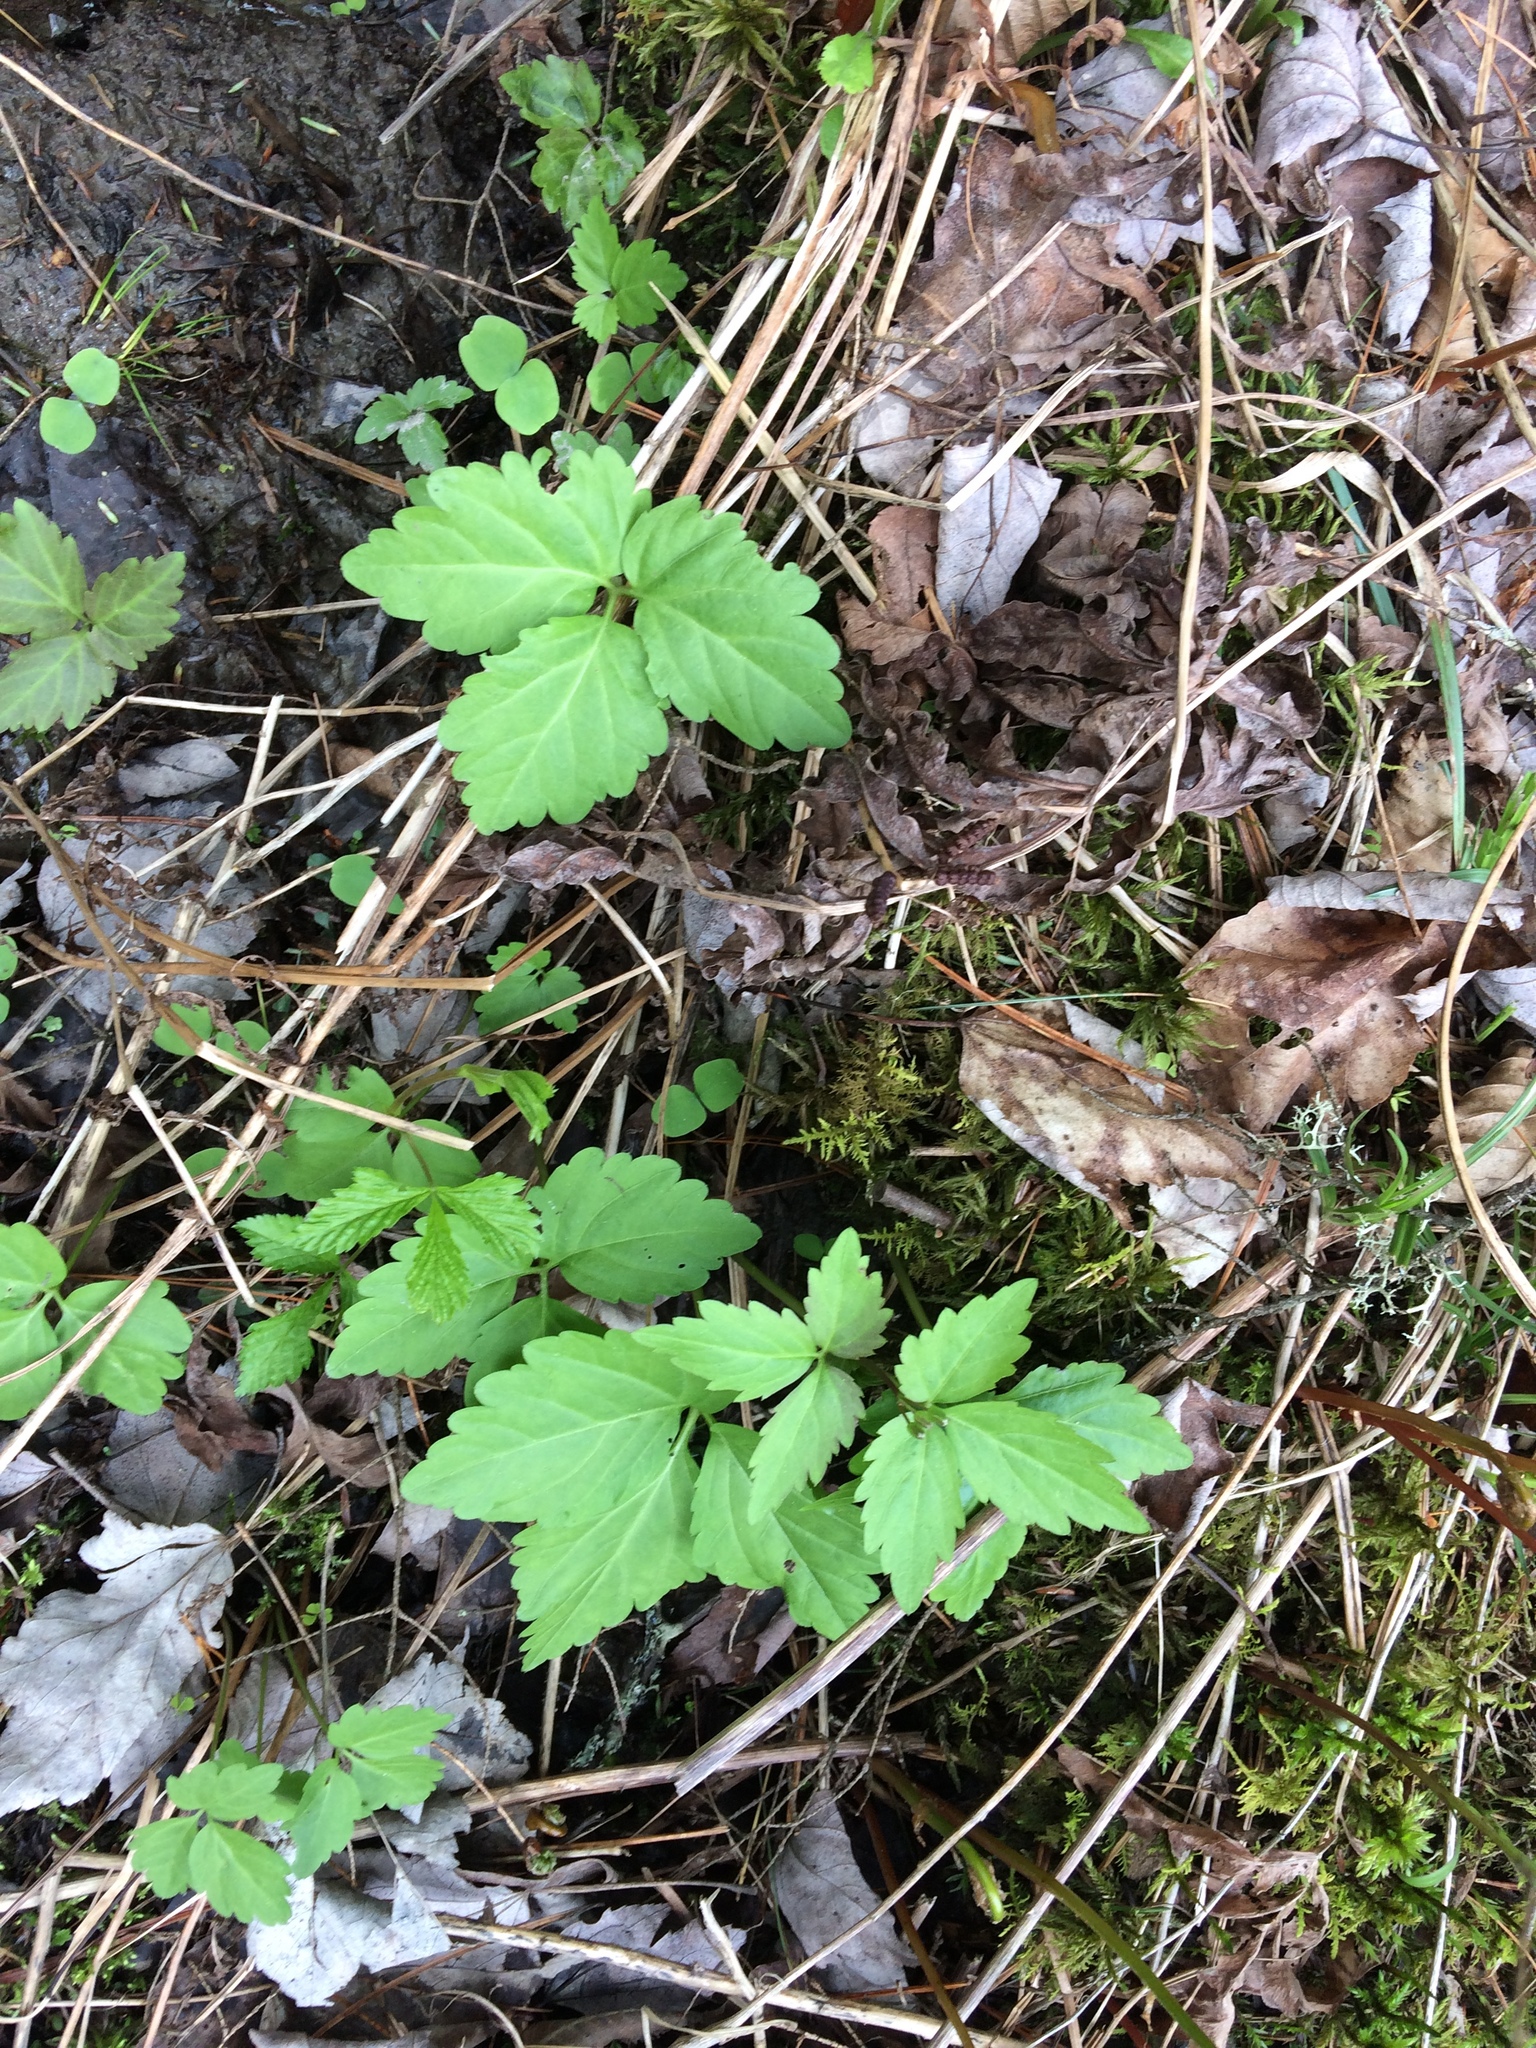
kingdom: Plantae
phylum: Tracheophyta
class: Magnoliopsida
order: Brassicales
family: Brassicaceae
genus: Cardamine
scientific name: Cardamine diphylla
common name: Broad-leaved toothwort
